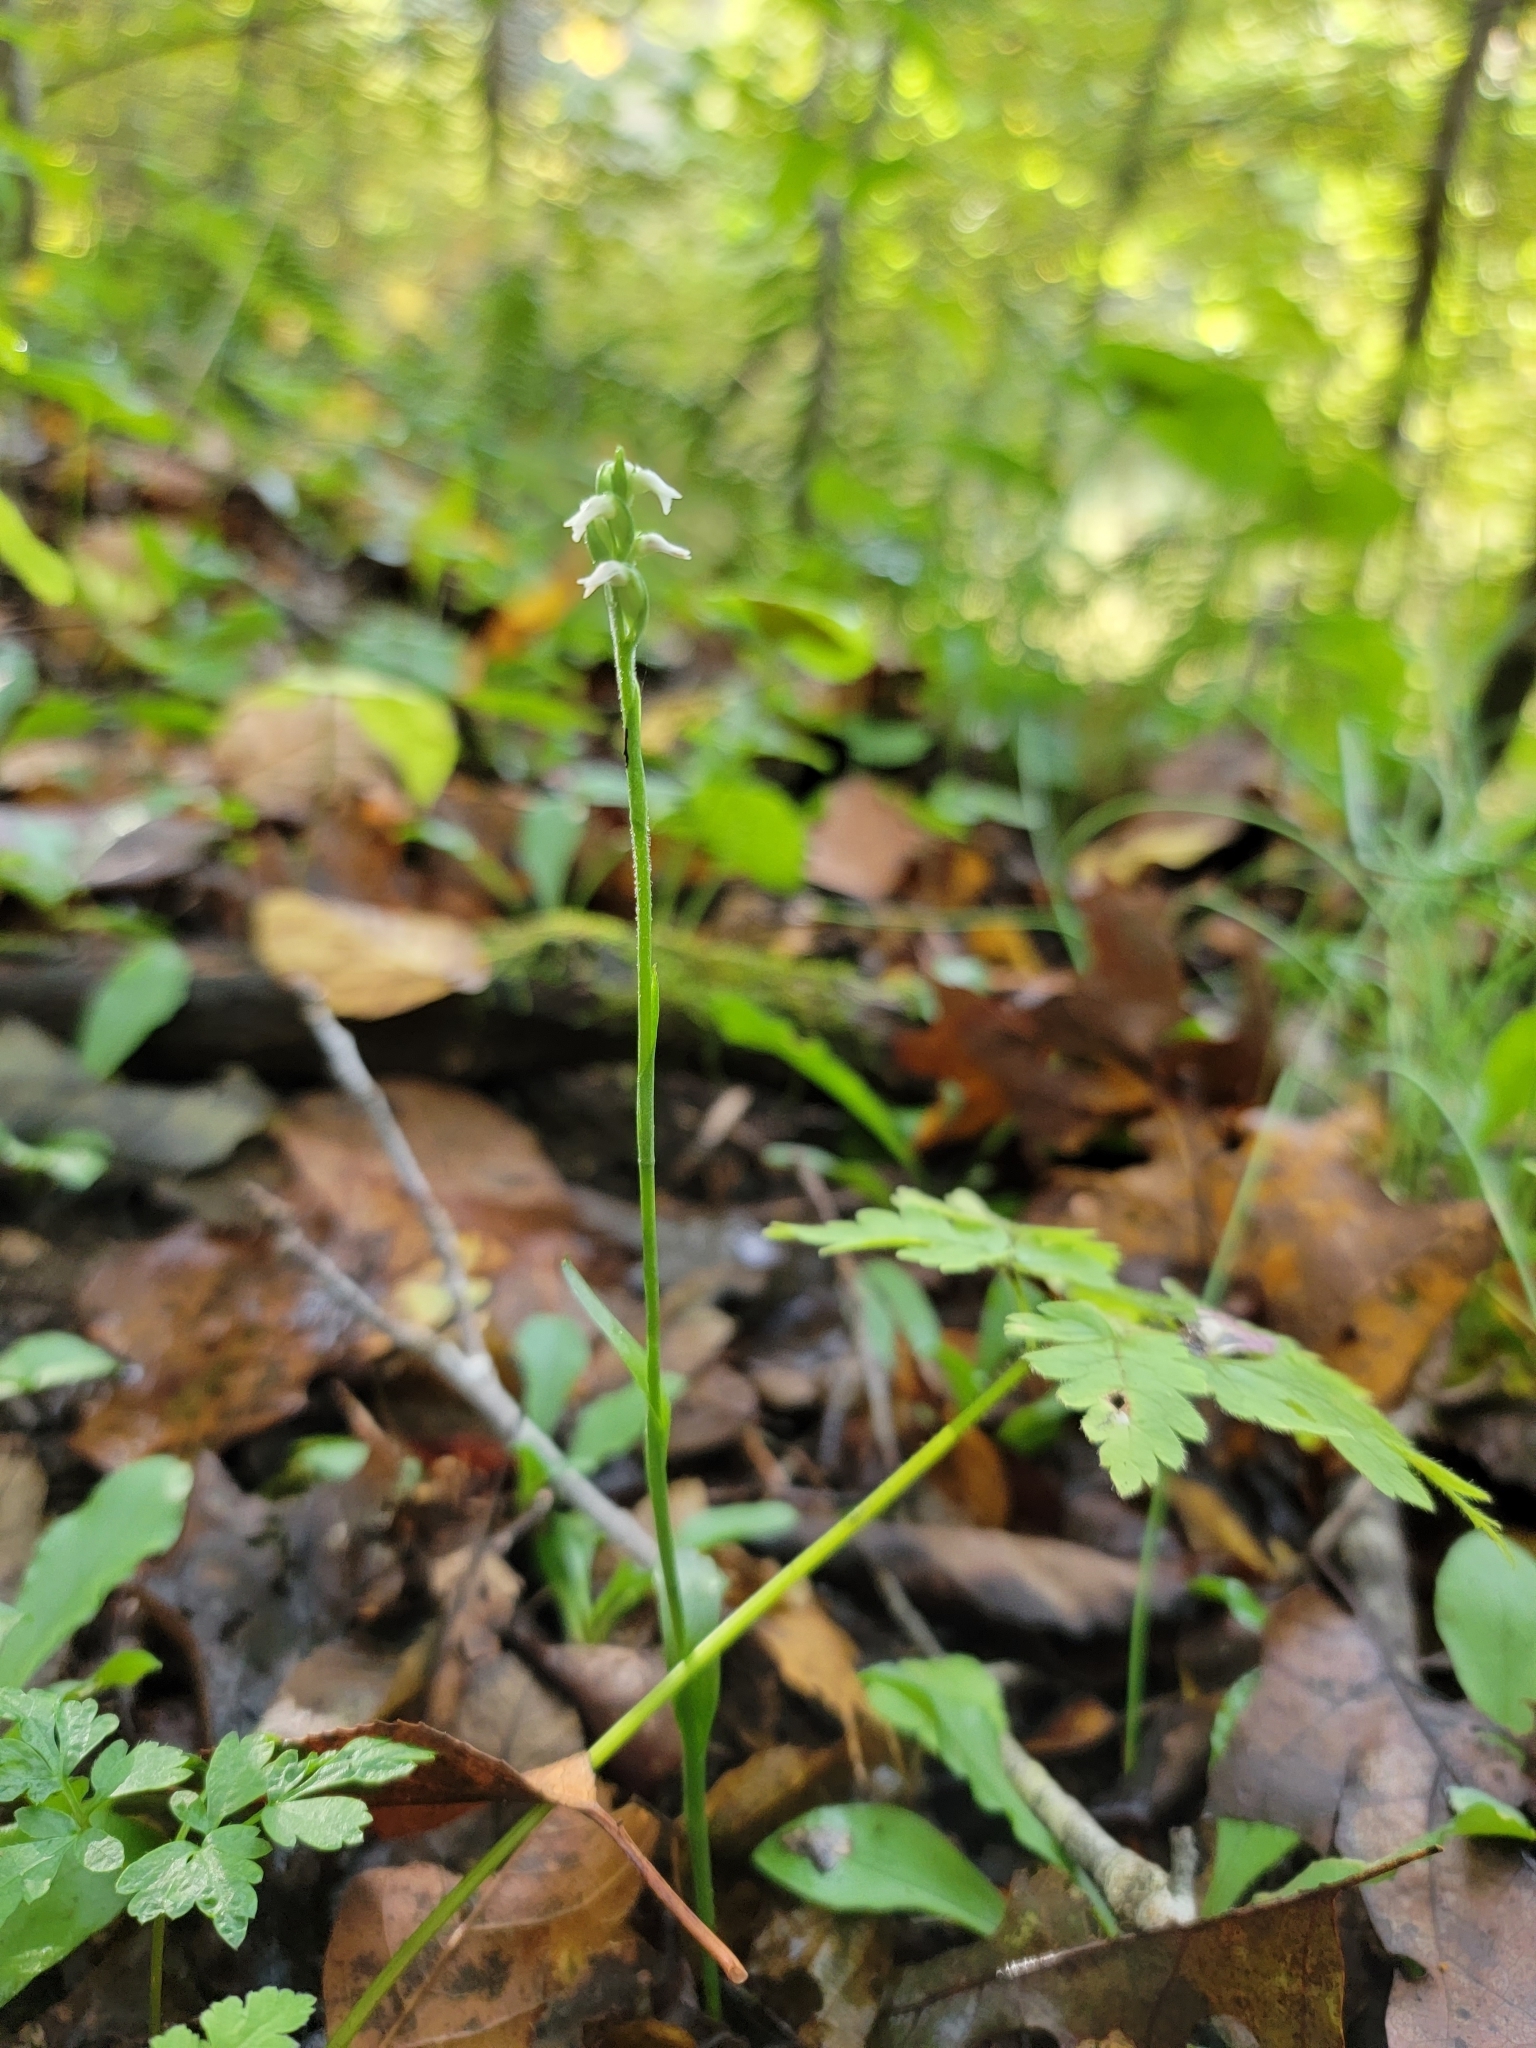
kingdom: Plantae
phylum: Tracheophyta
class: Liliopsida
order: Asparagales
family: Orchidaceae
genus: Spiranthes
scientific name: Spiranthes ovalis
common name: October ladies'-tresses
